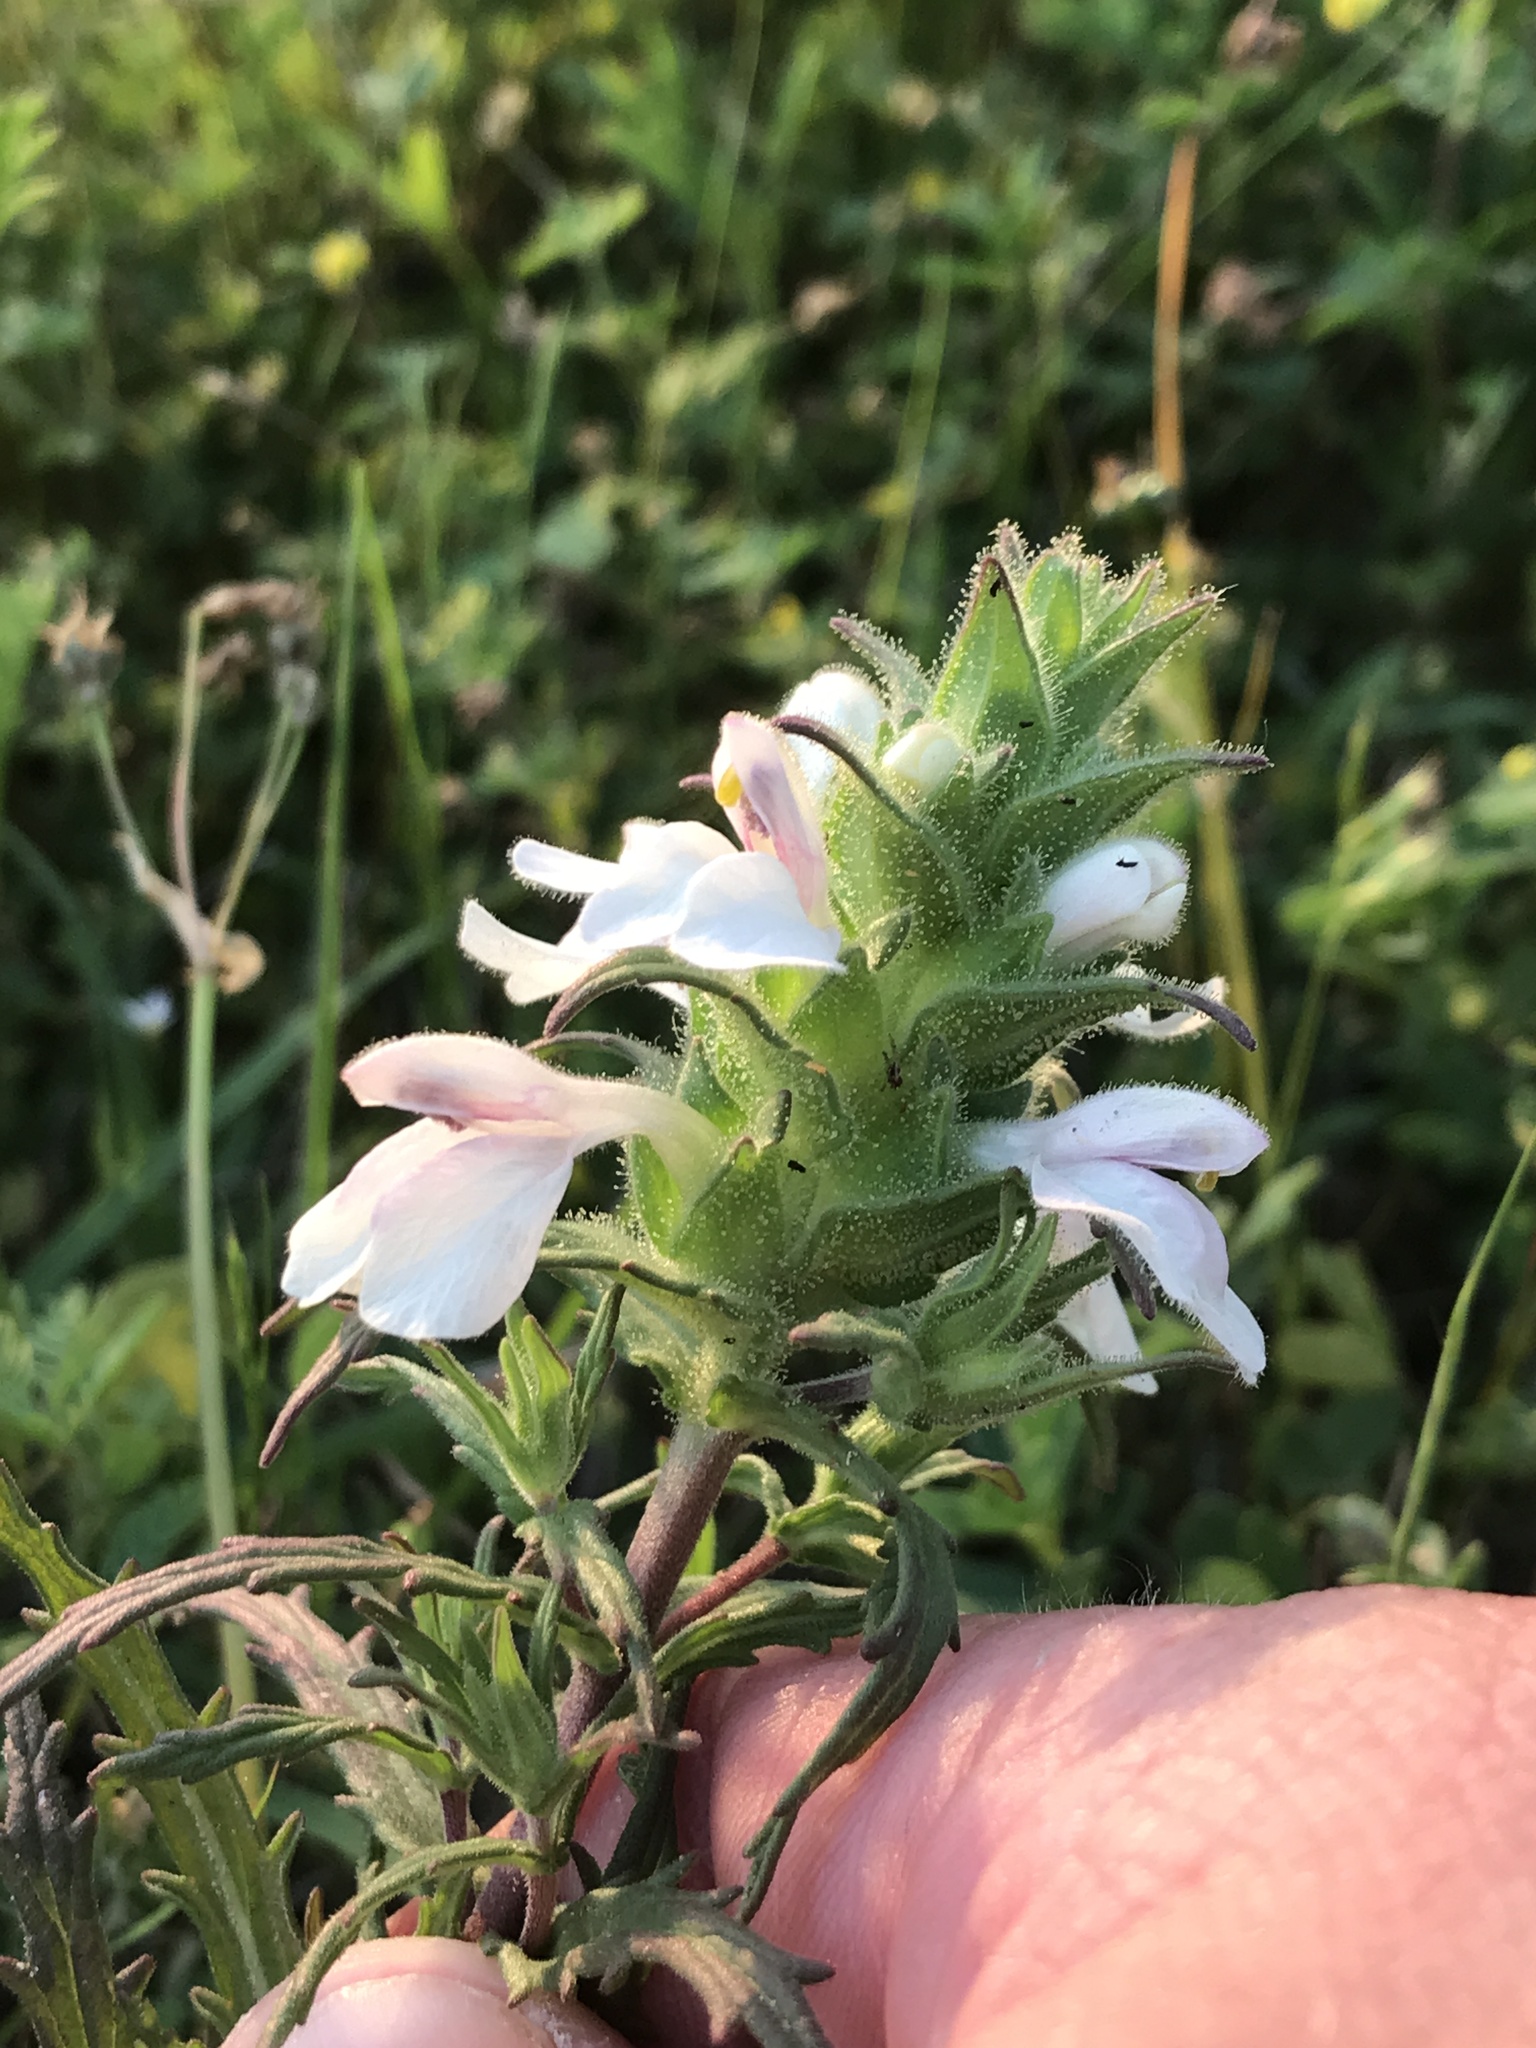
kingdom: Plantae
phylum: Tracheophyta
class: Magnoliopsida
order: Lamiales
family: Orobanchaceae
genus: Bellardia
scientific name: Bellardia trixago
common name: Mediterranean lineseed
